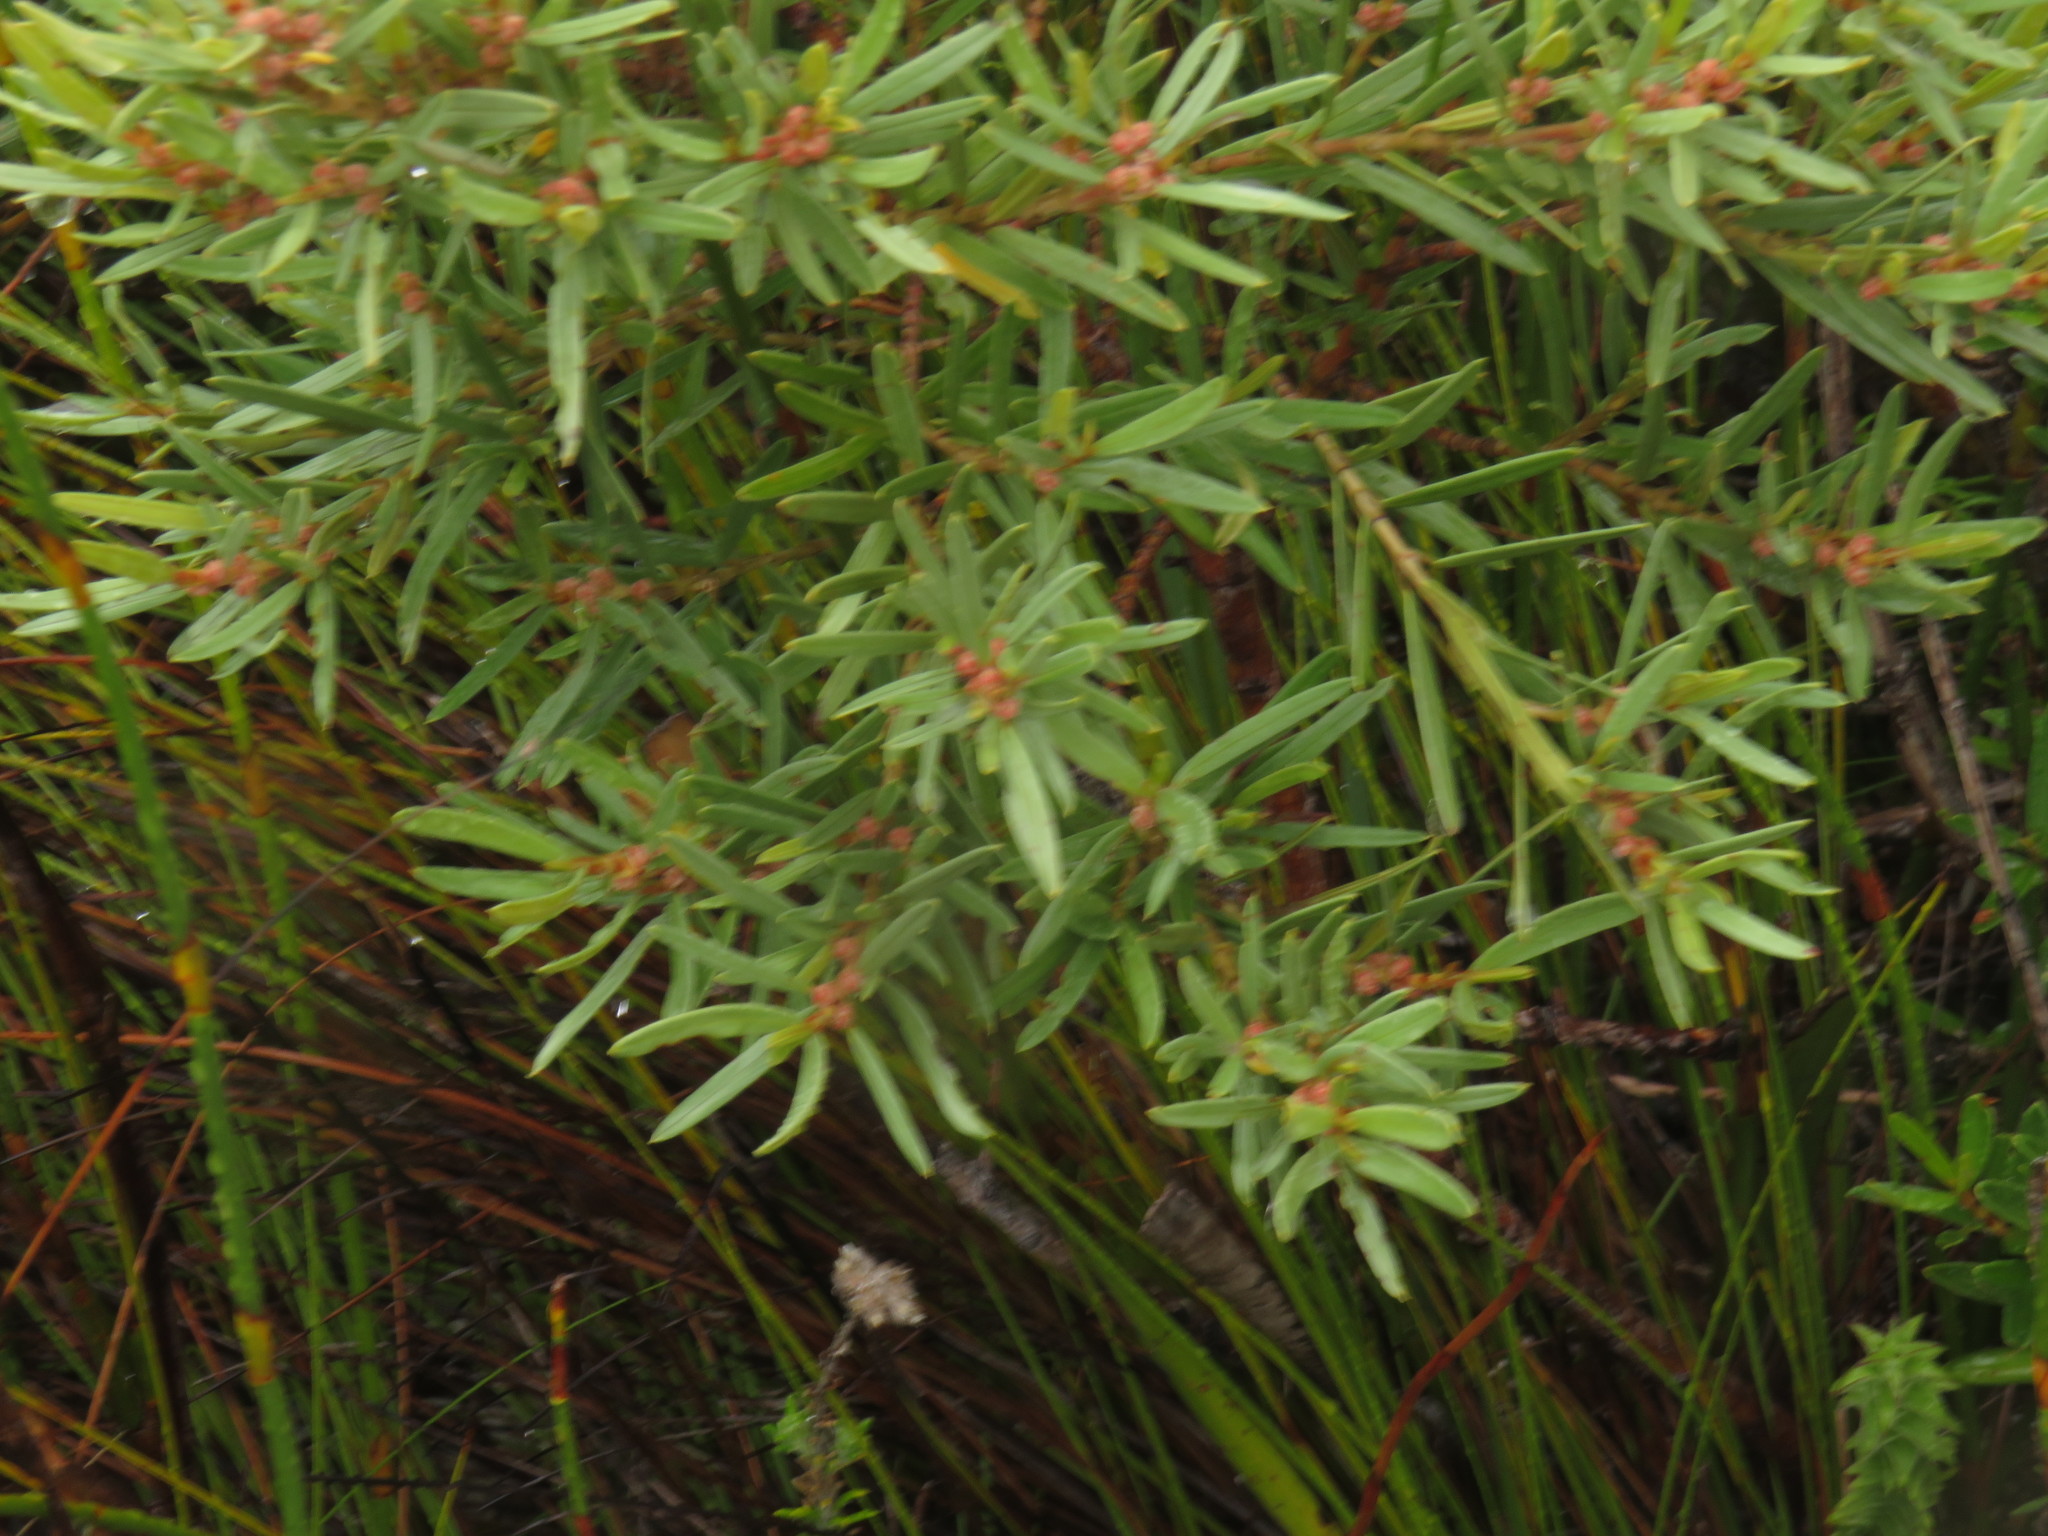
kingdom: Plantae
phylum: Tracheophyta
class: Magnoliopsida
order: Cornales
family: Grubbiaceae
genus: Grubbia
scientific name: Grubbia tomentosa
